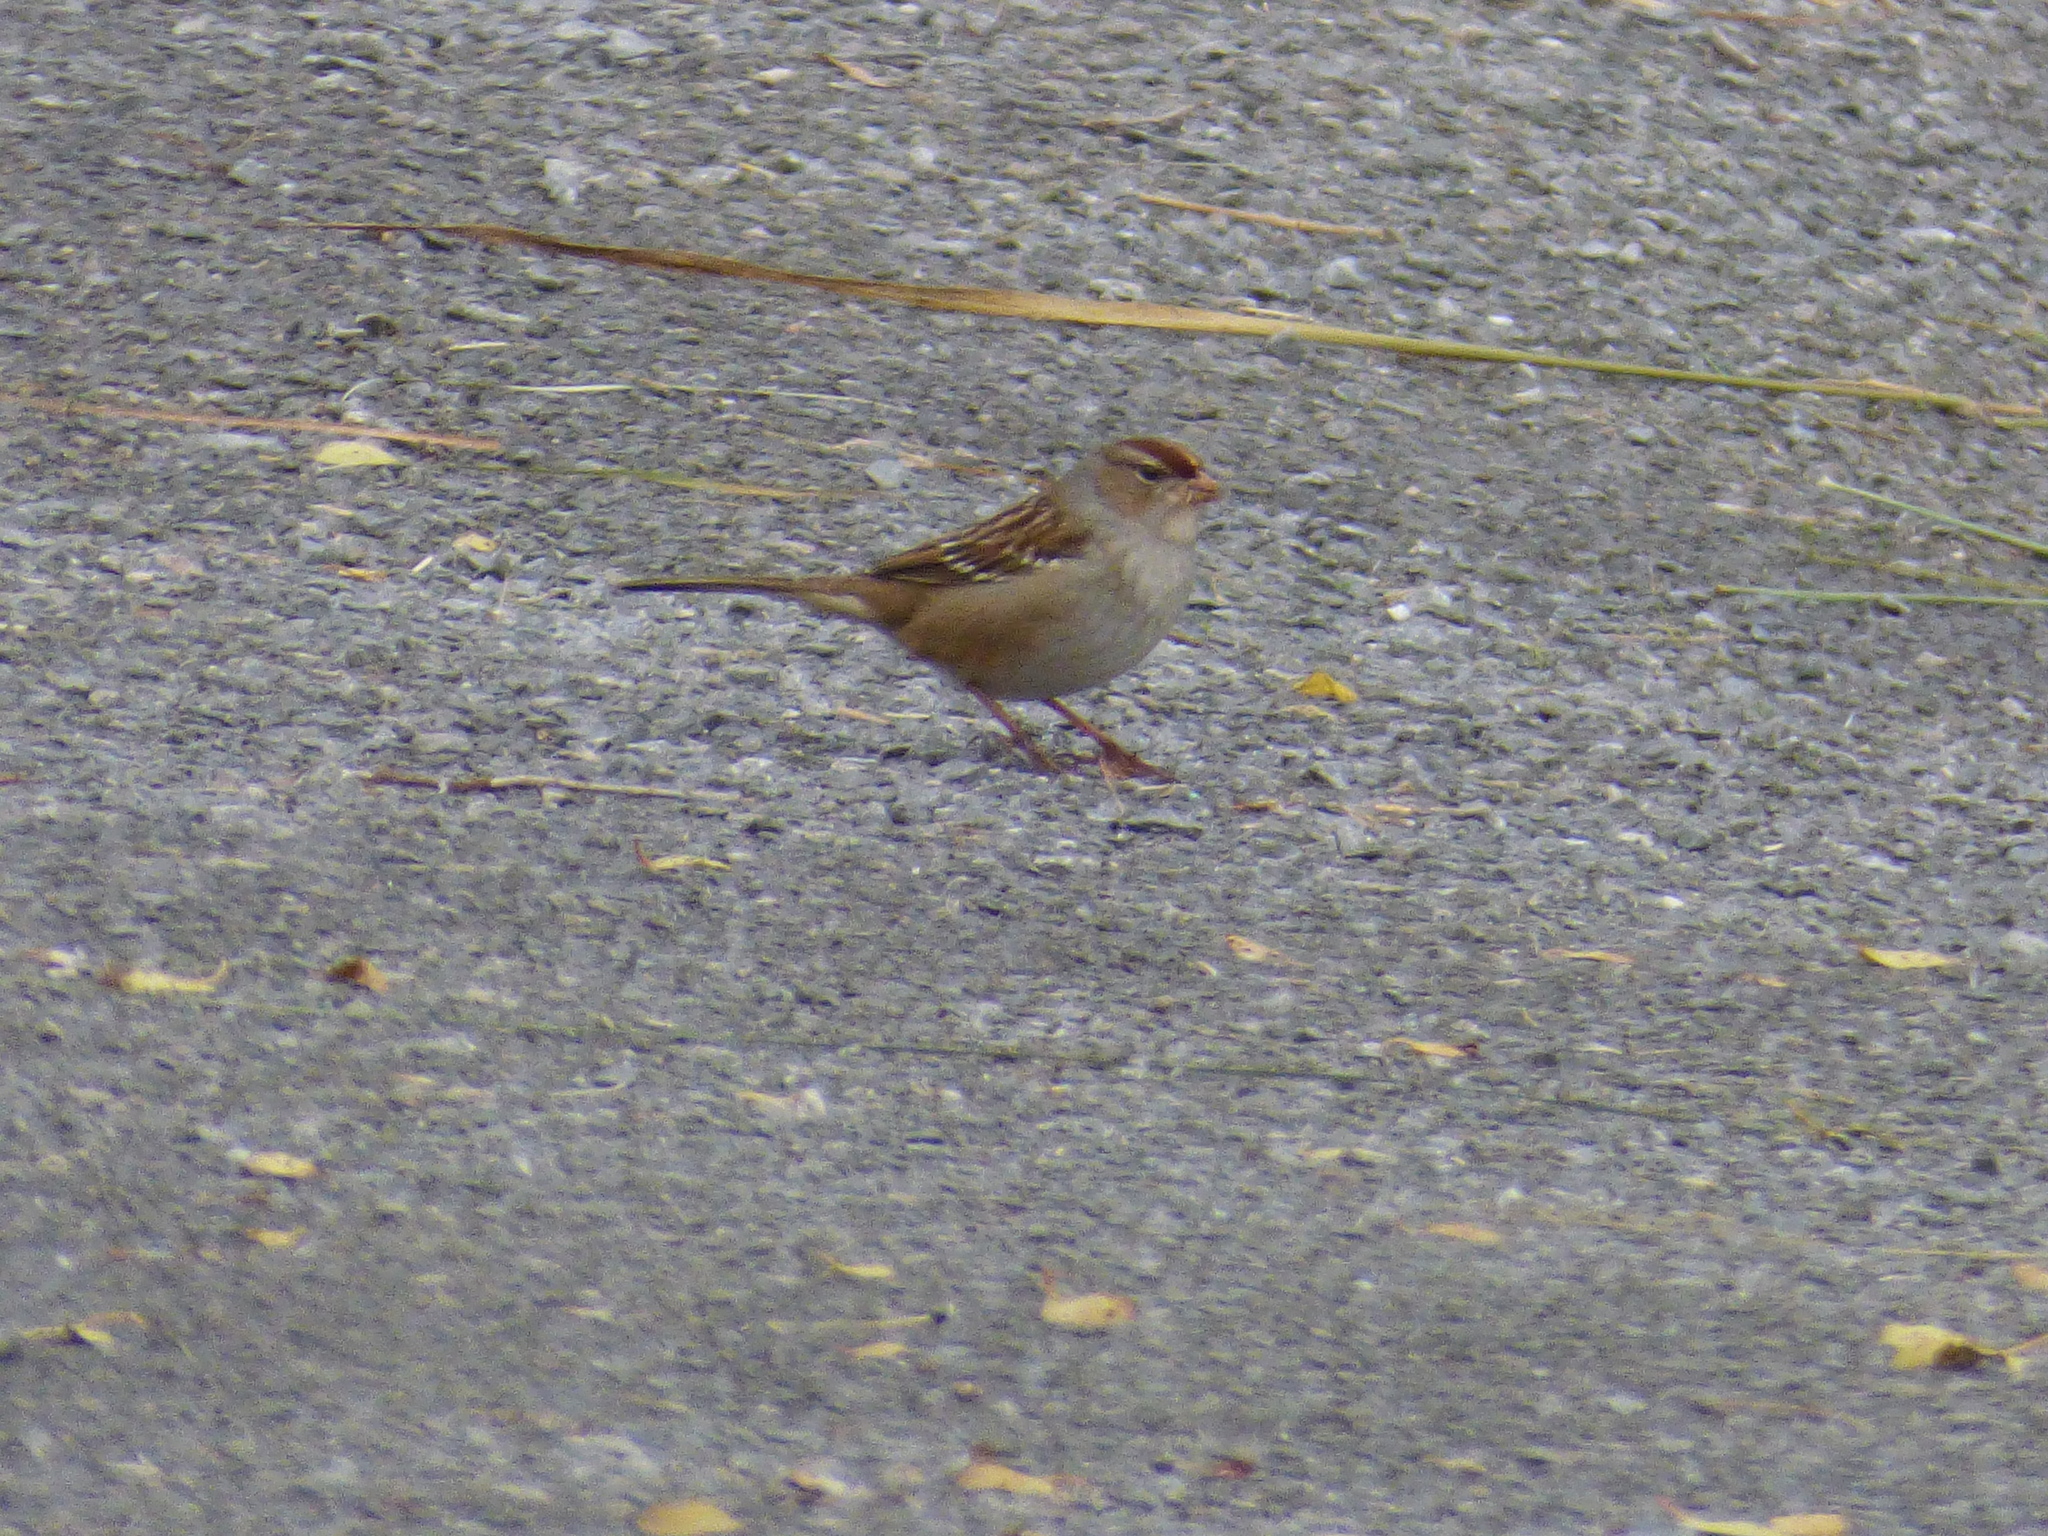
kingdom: Animalia
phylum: Chordata
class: Aves
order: Passeriformes
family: Passerellidae
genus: Zonotrichia
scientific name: Zonotrichia leucophrys
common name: White-crowned sparrow
